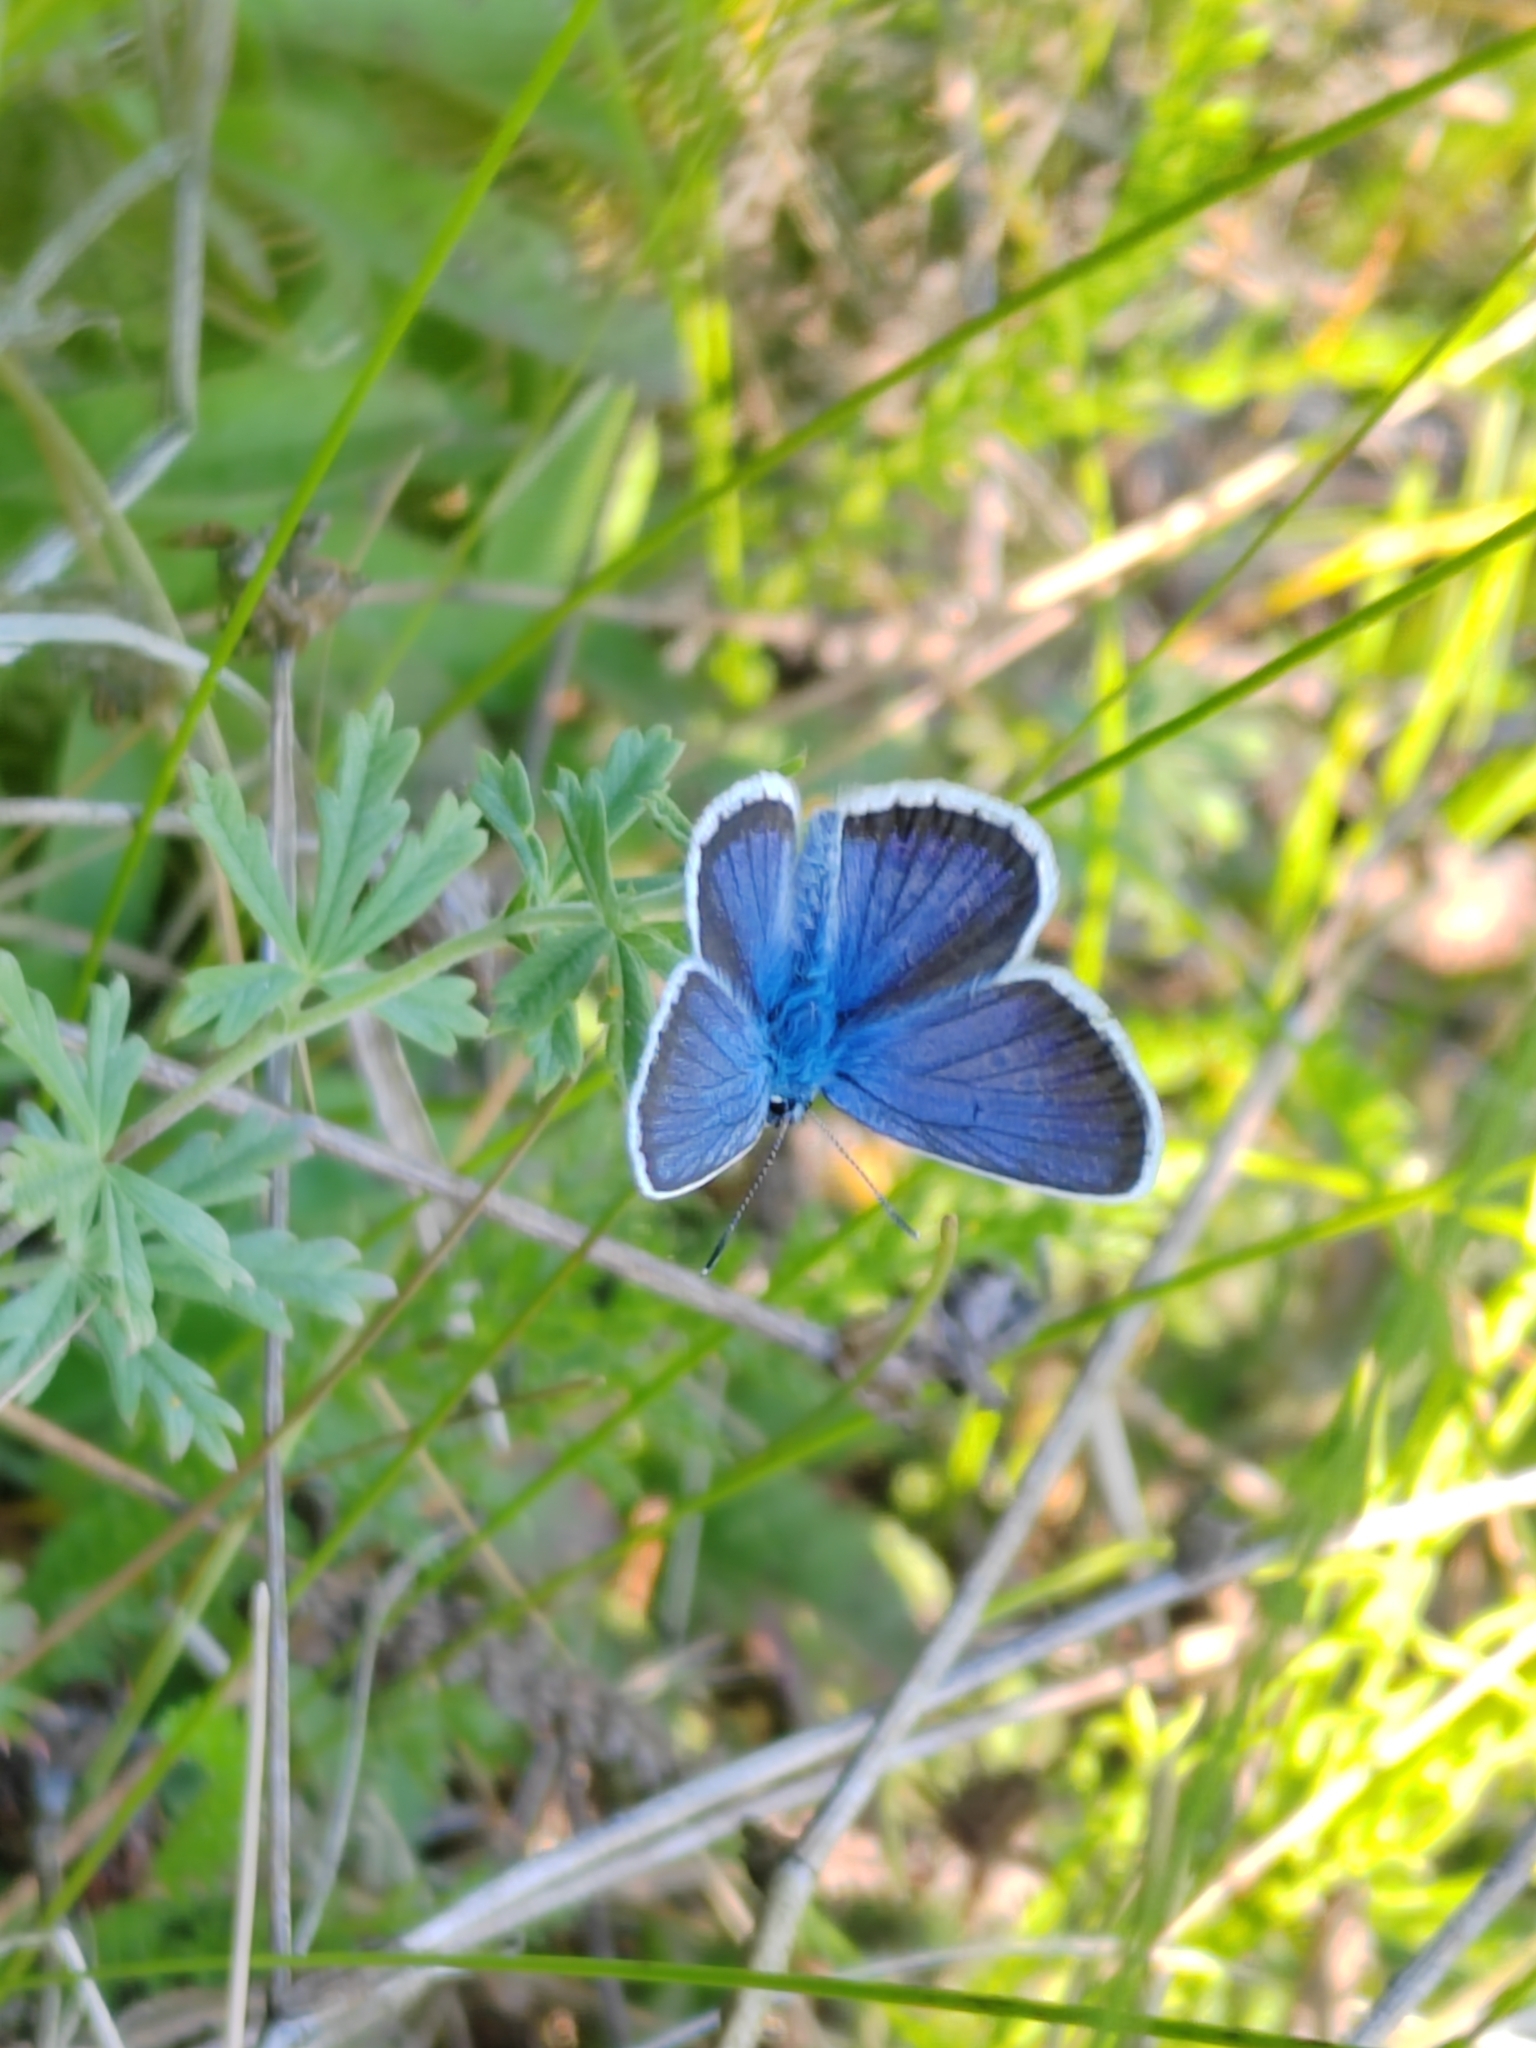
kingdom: Animalia
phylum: Arthropoda
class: Insecta
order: Lepidoptera
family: Lycaenidae
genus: Plebejus
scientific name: Plebejus argus
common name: Silver-studded blue
